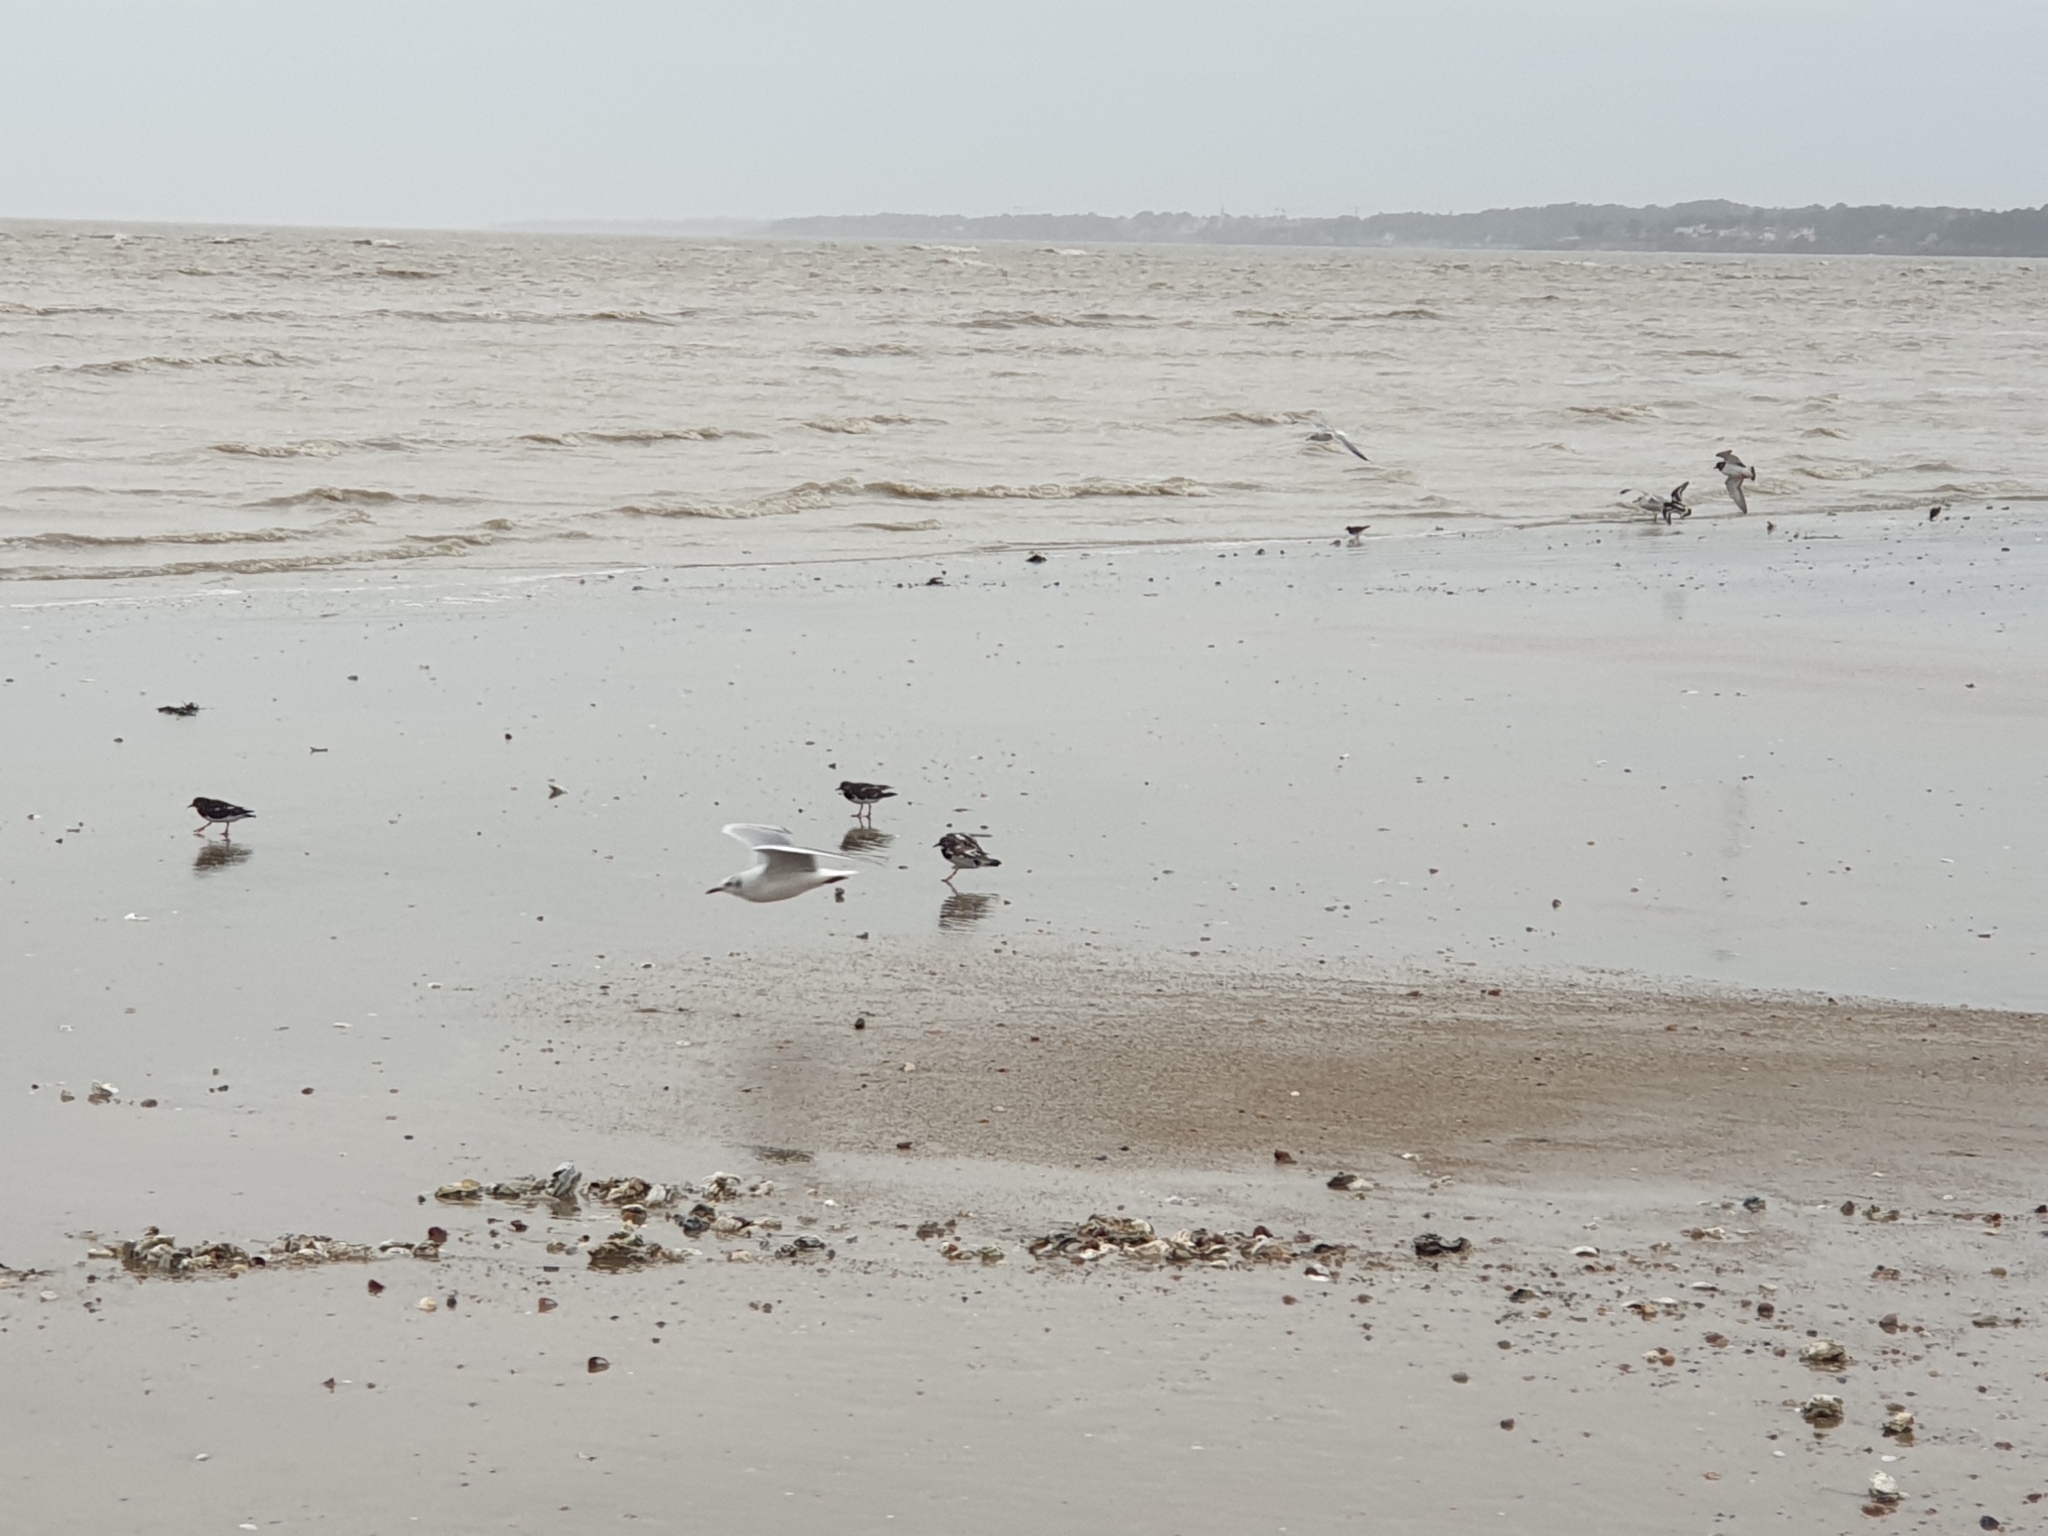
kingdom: Animalia
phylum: Chordata
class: Aves
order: Charadriiformes
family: Laridae
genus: Chroicocephalus
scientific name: Chroicocephalus ridibundus
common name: Black-headed gull
